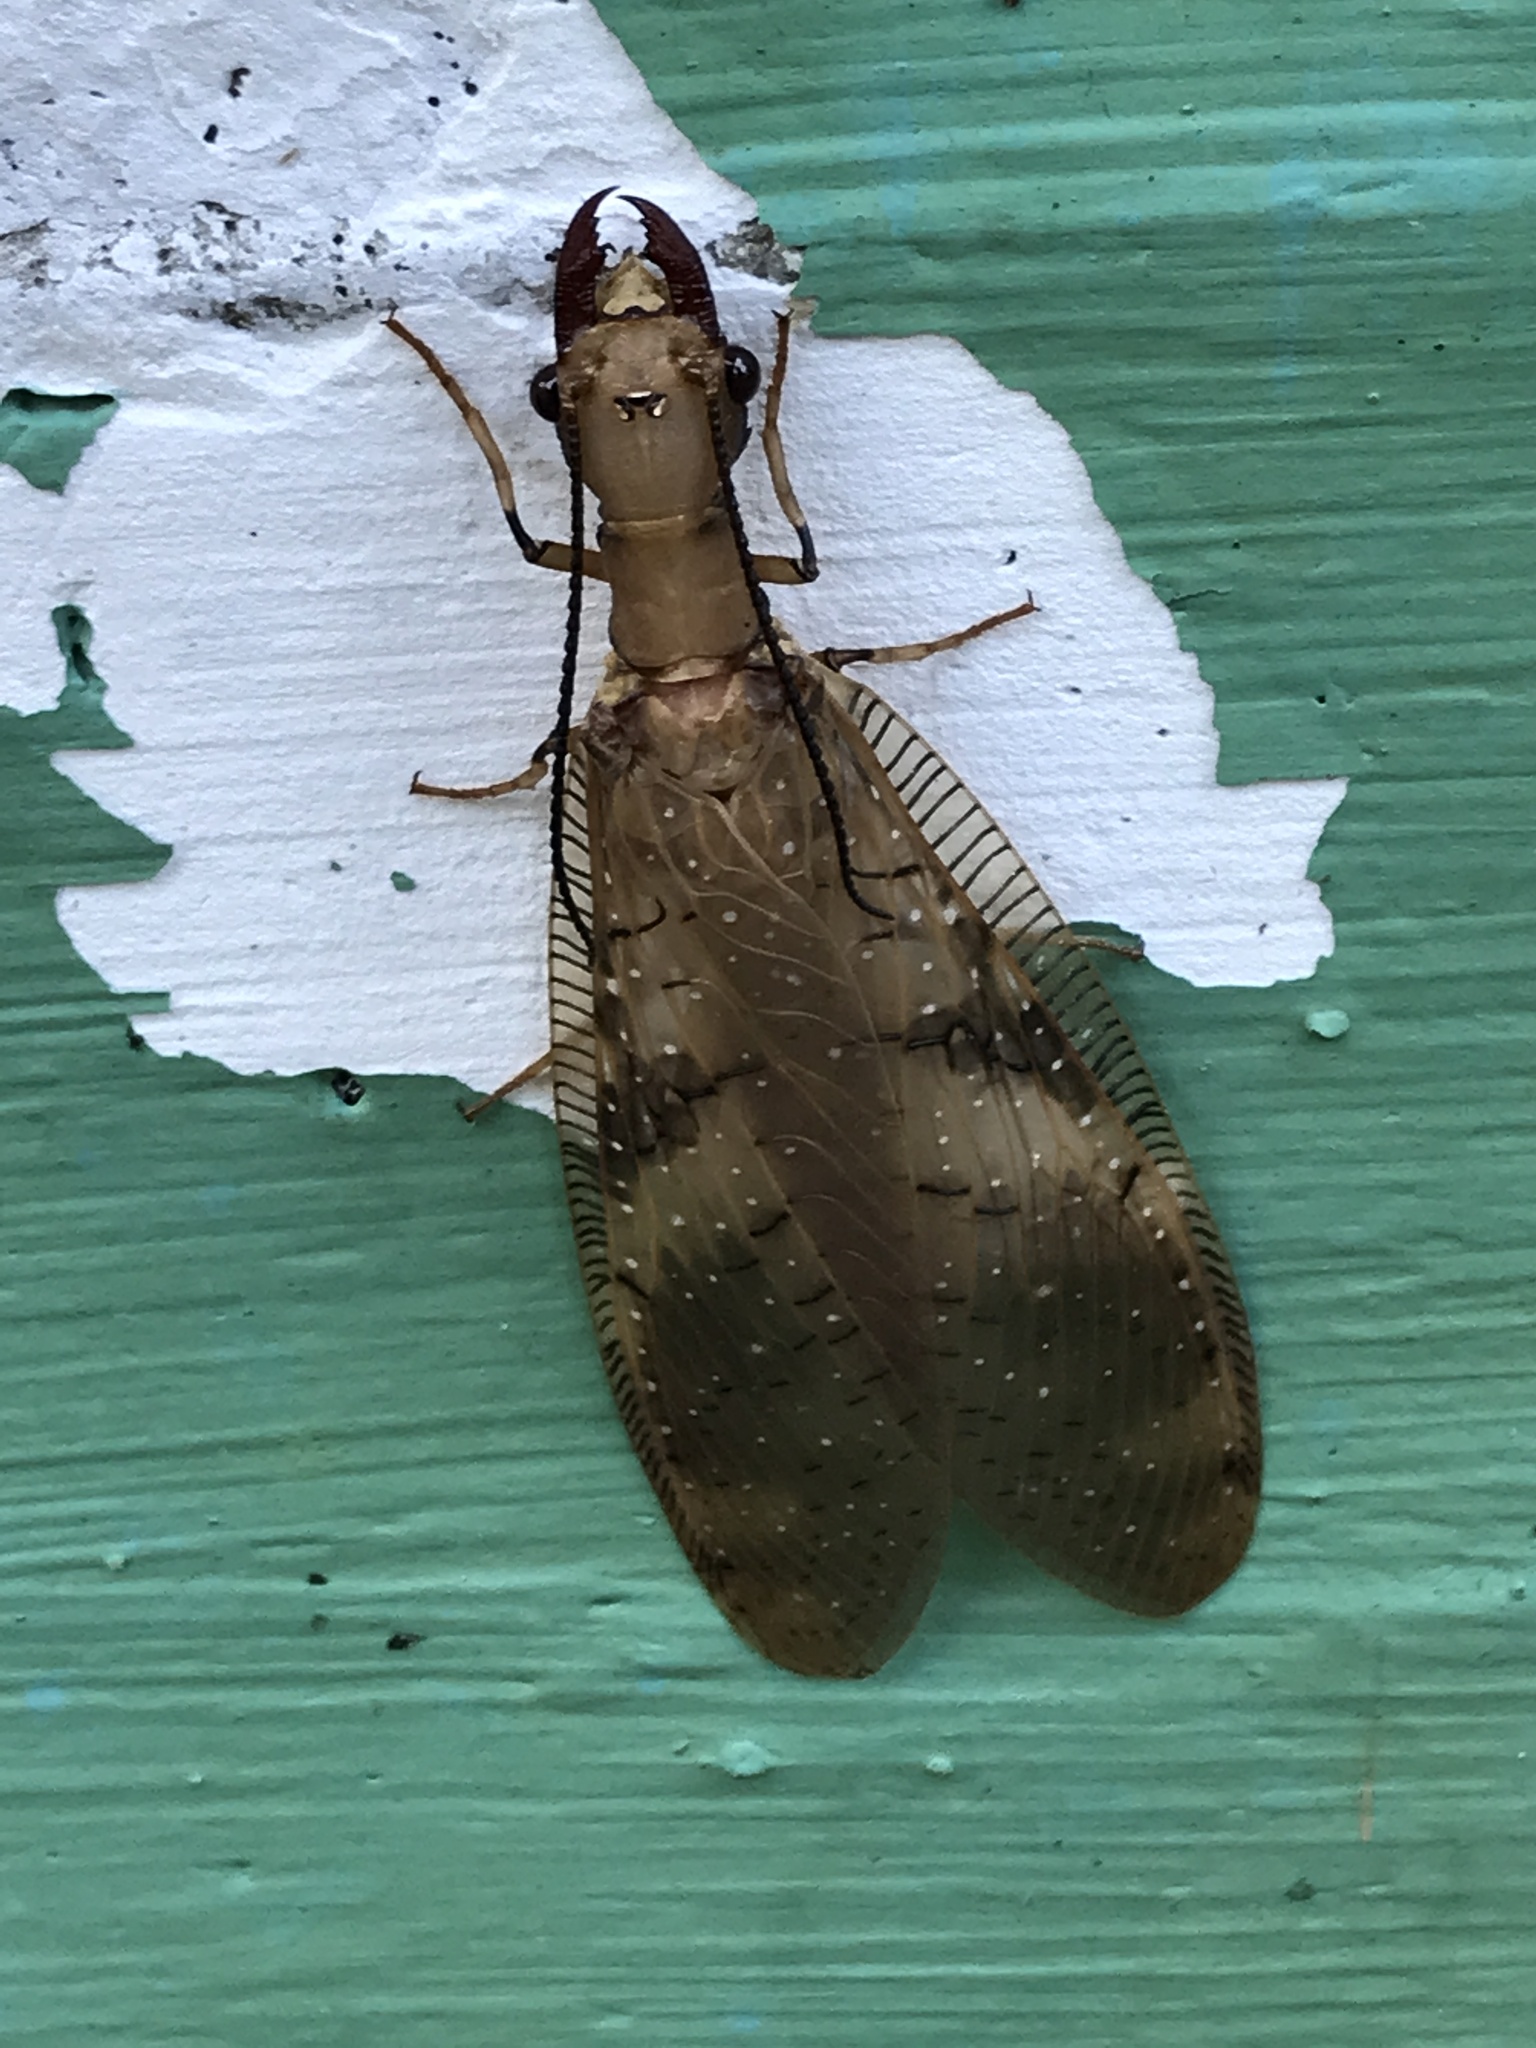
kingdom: Animalia
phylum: Arthropoda
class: Insecta
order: Megaloptera
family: Corydalidae
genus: Corydalus
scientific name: Corydalus flavicornis
